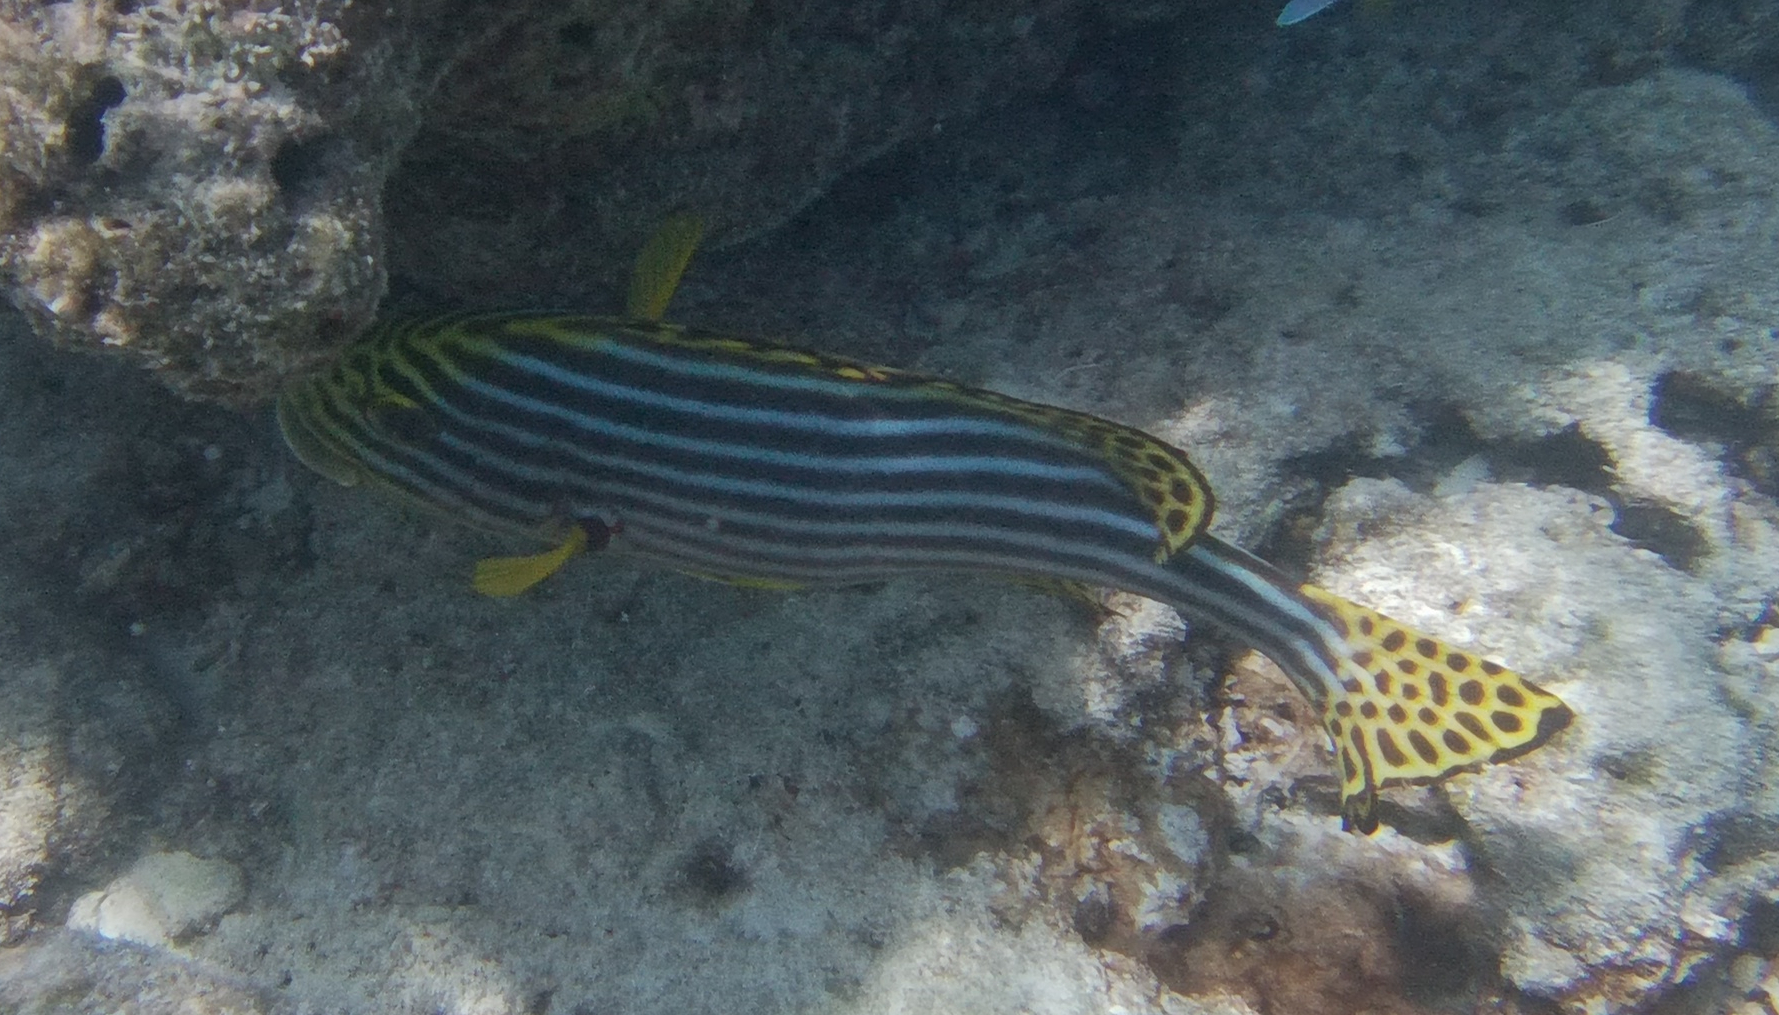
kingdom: Animalia
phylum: Chordata
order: Perciformes
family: Haemulidae
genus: Plectorhinchus
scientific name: Plectorhinchus vittatus
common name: Oriental sweetlips
